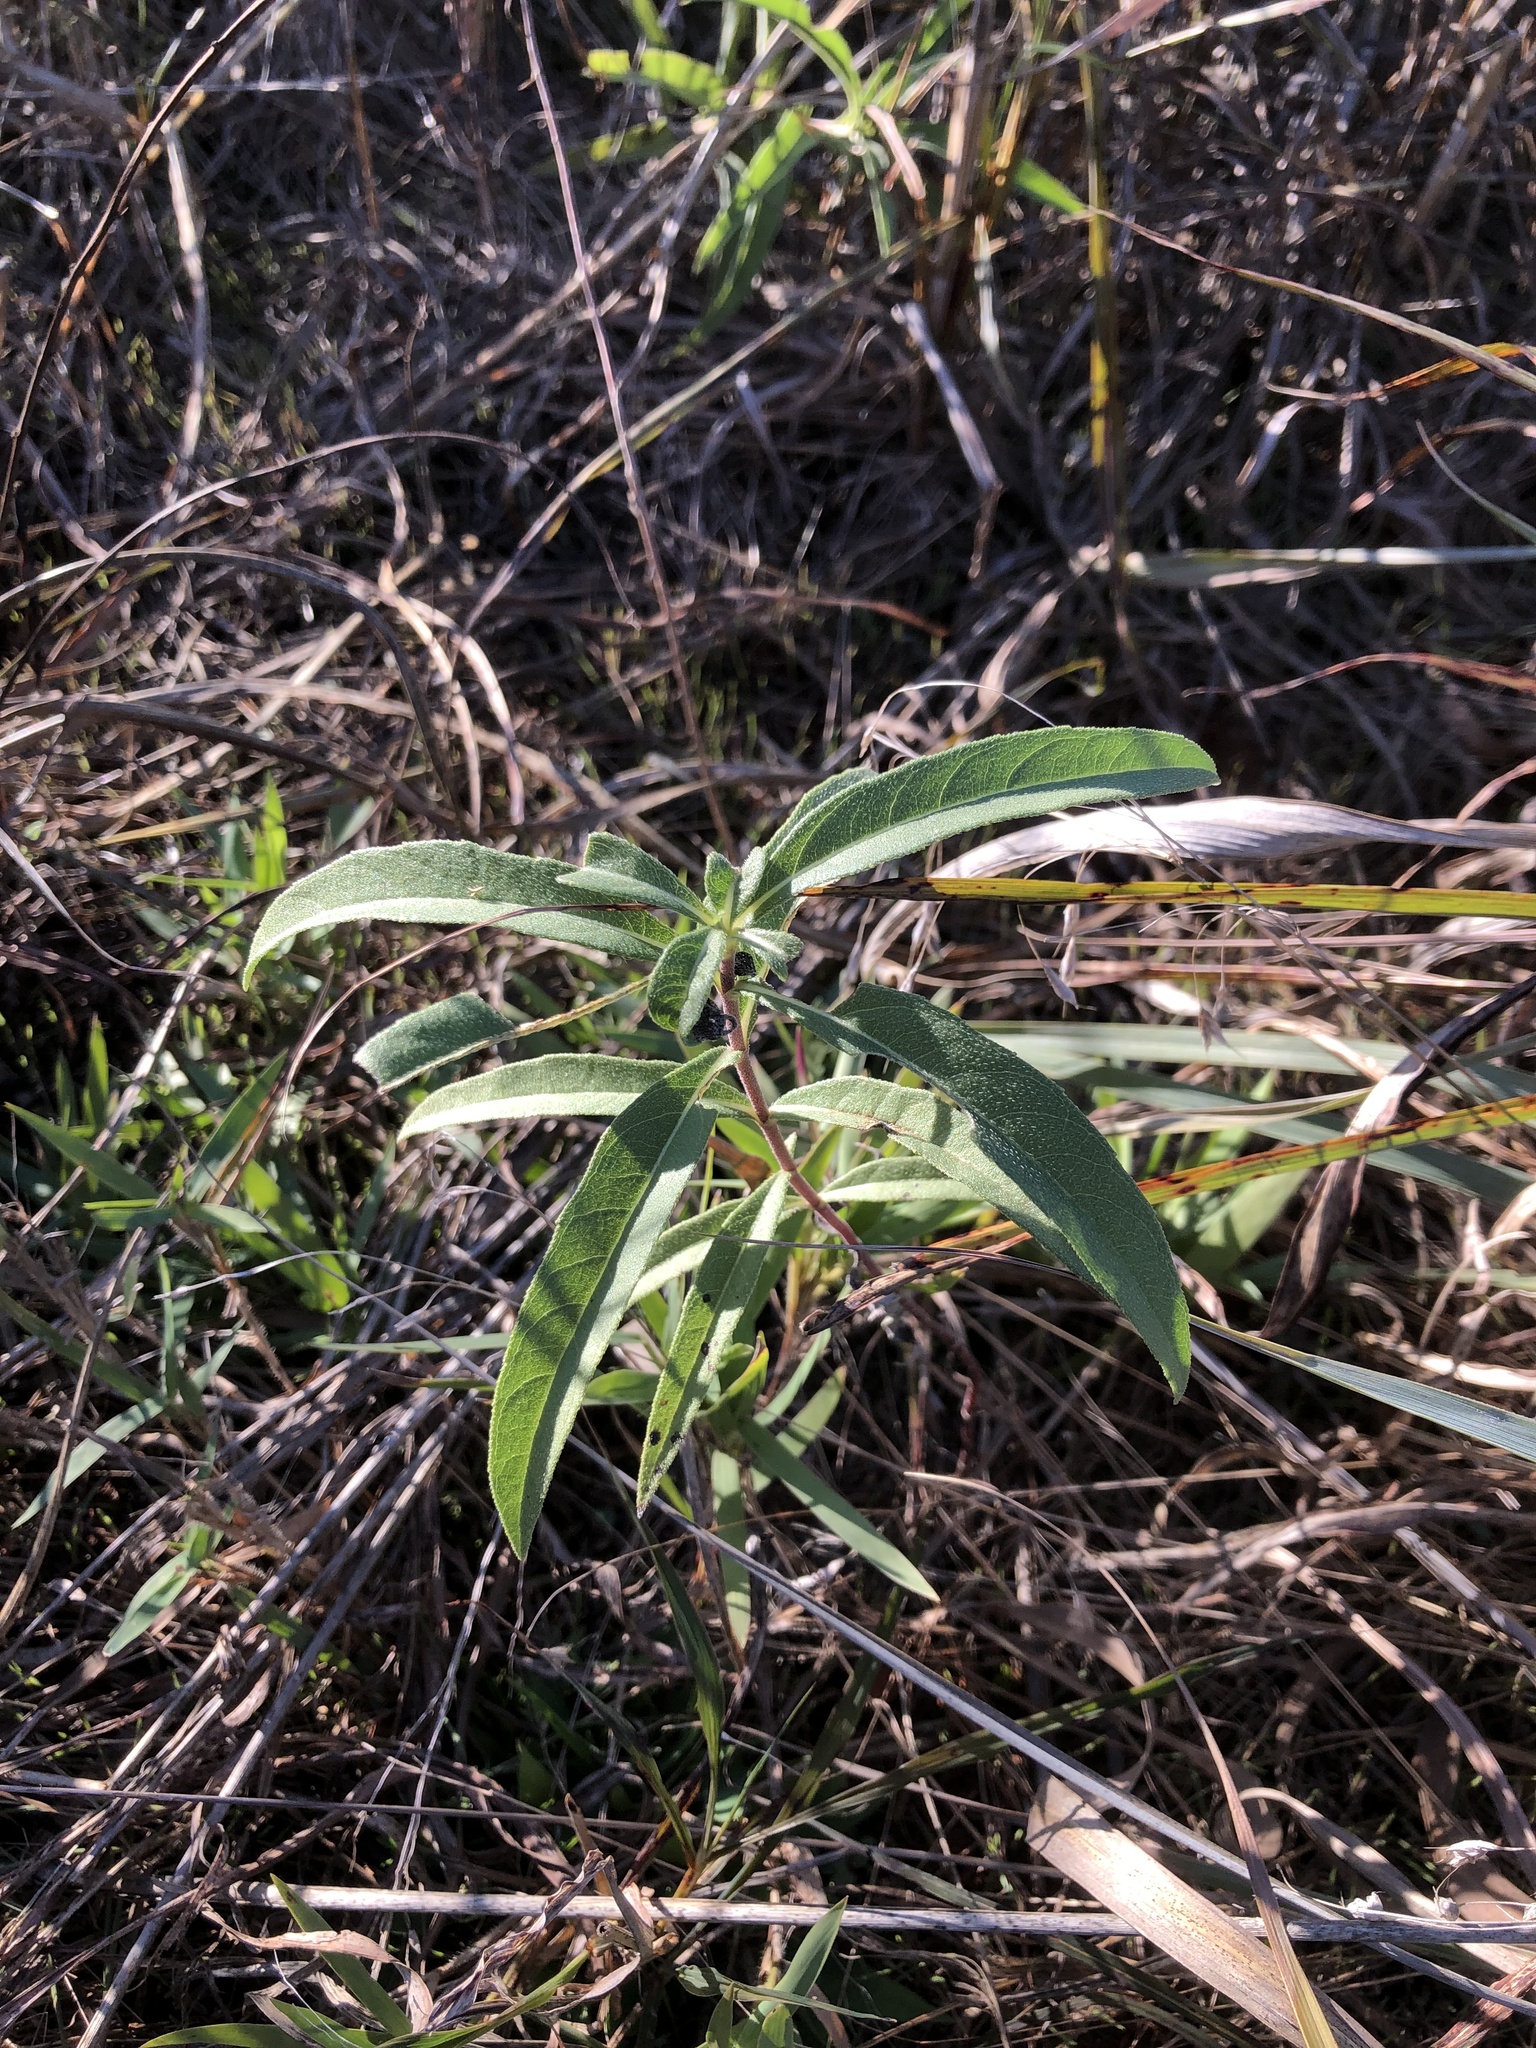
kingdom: Plantae
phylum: Tracheophyta
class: Magnoliopsida
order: Asterales
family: Asteraceae
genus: Helianthus
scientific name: Helianthus maximiliani
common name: Maximilian's sunflower
